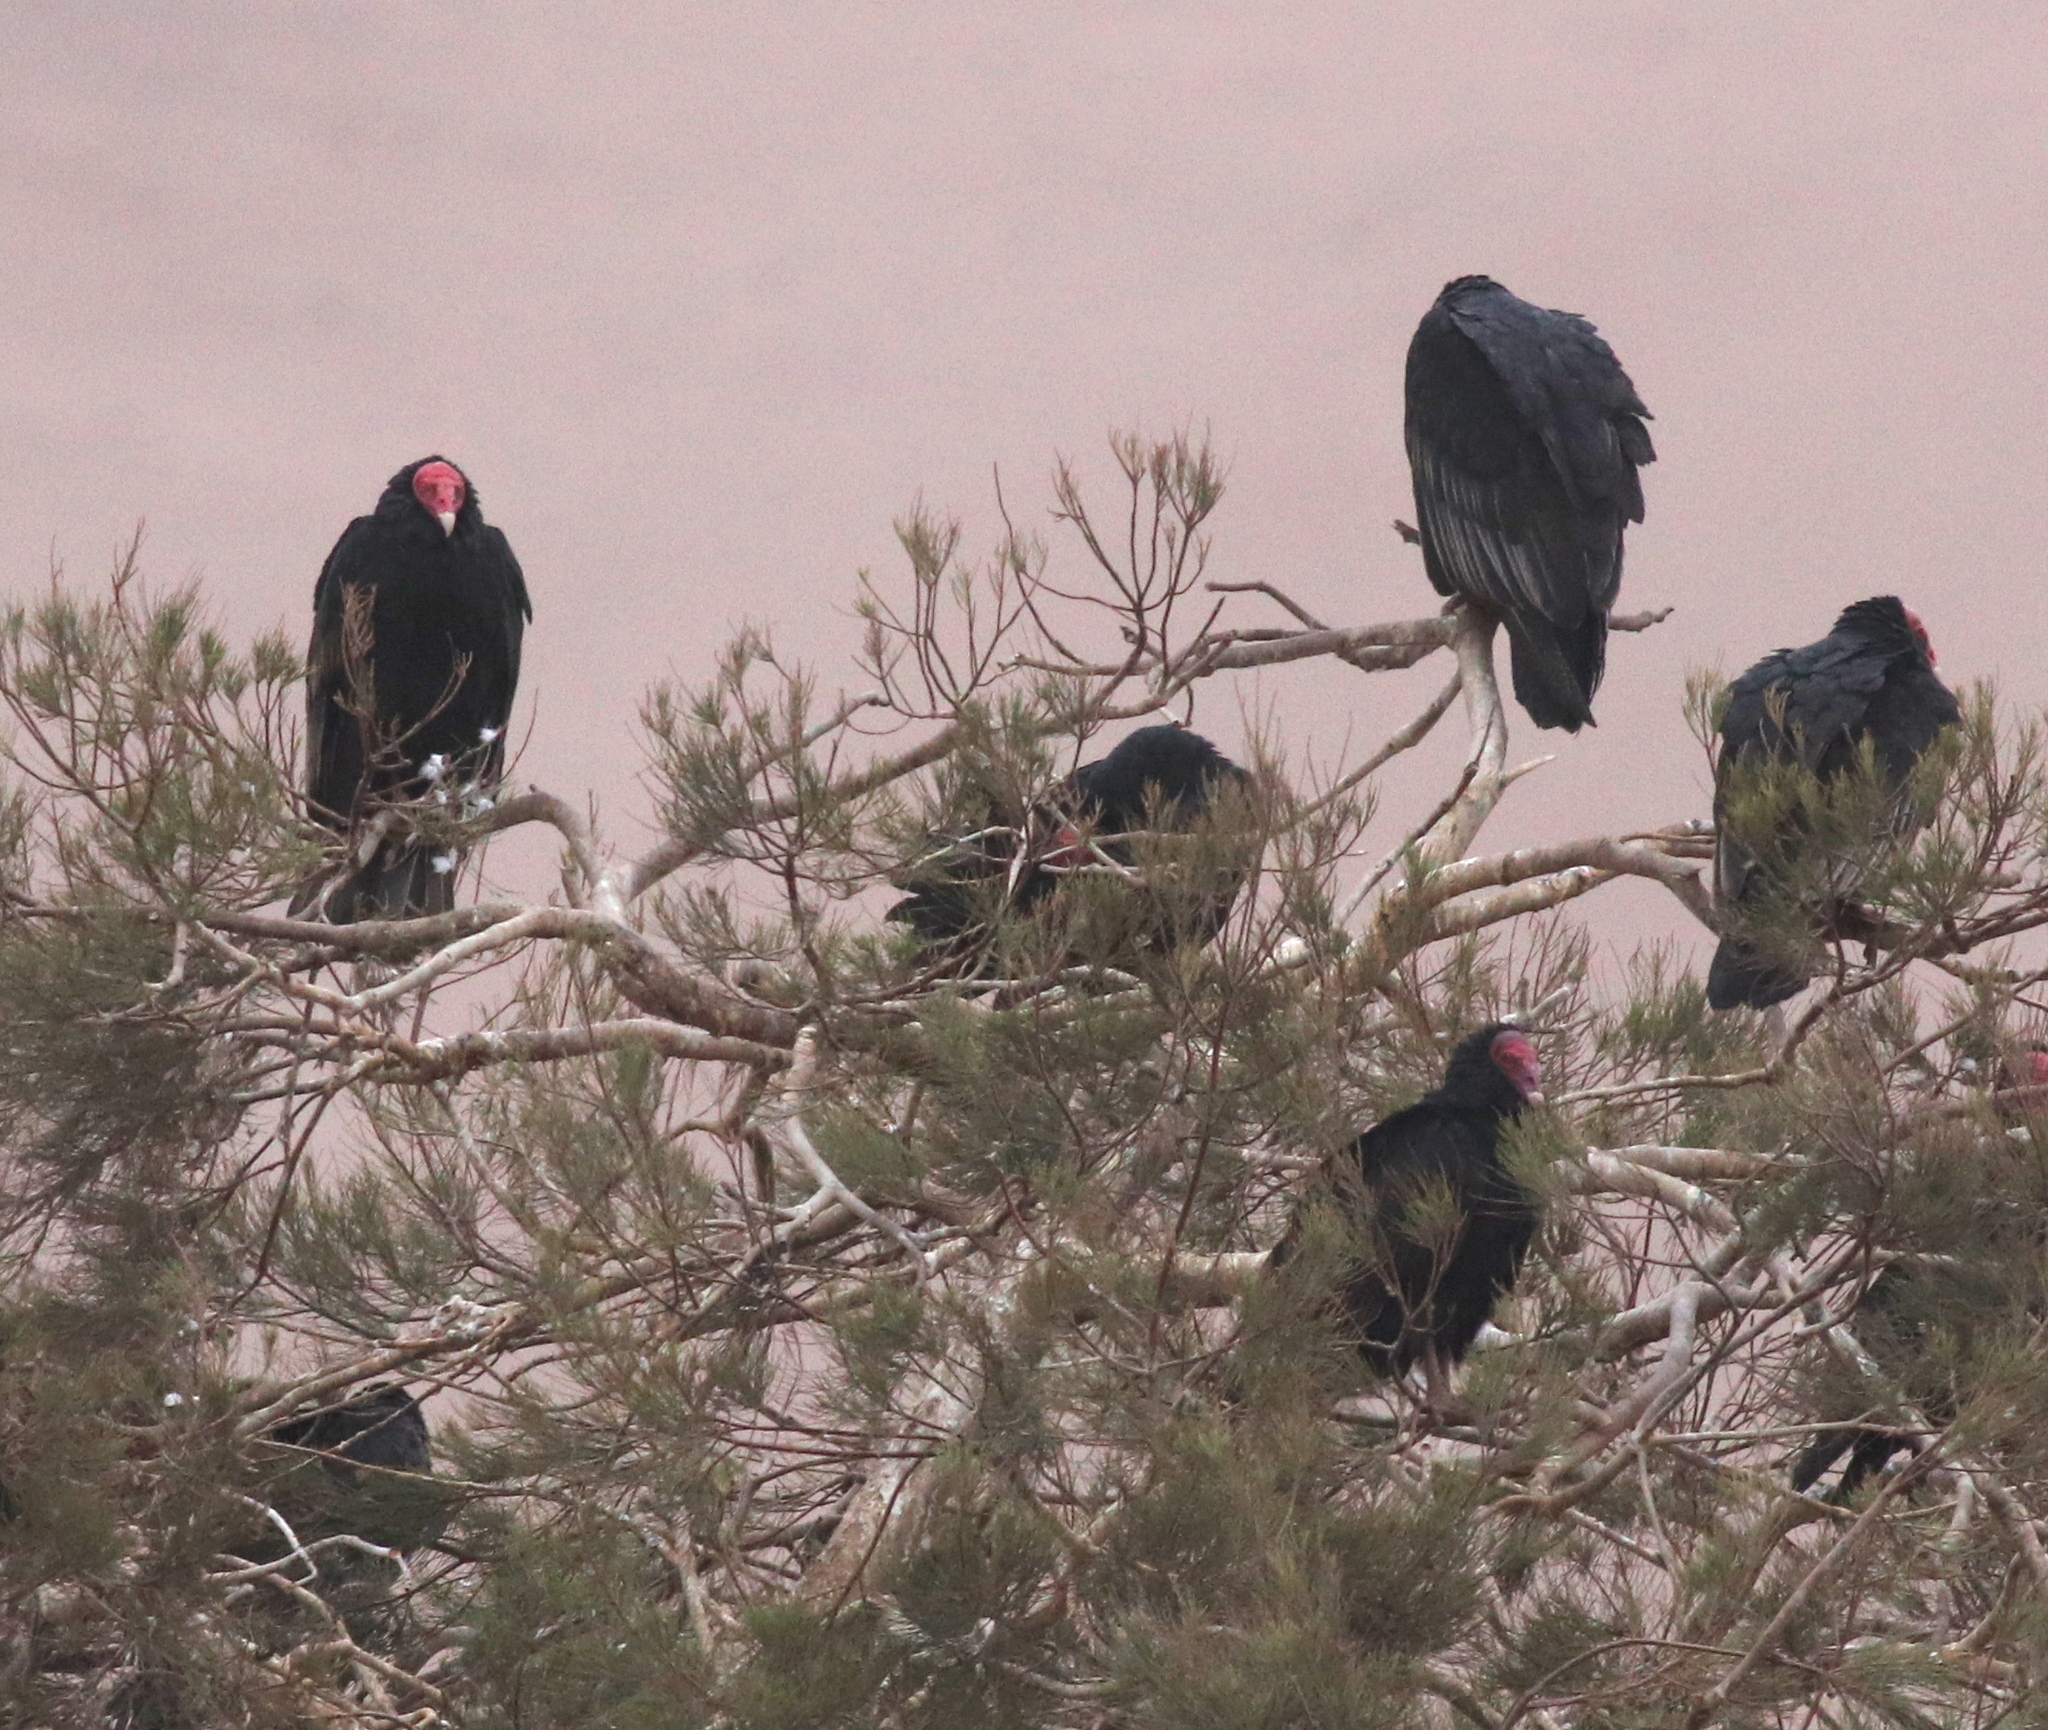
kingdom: Animalia
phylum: Chordata
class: Aves
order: Accipitriformes
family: Cathartidae
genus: Cathartes
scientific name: Cathartes aura
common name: Turkey vulture
